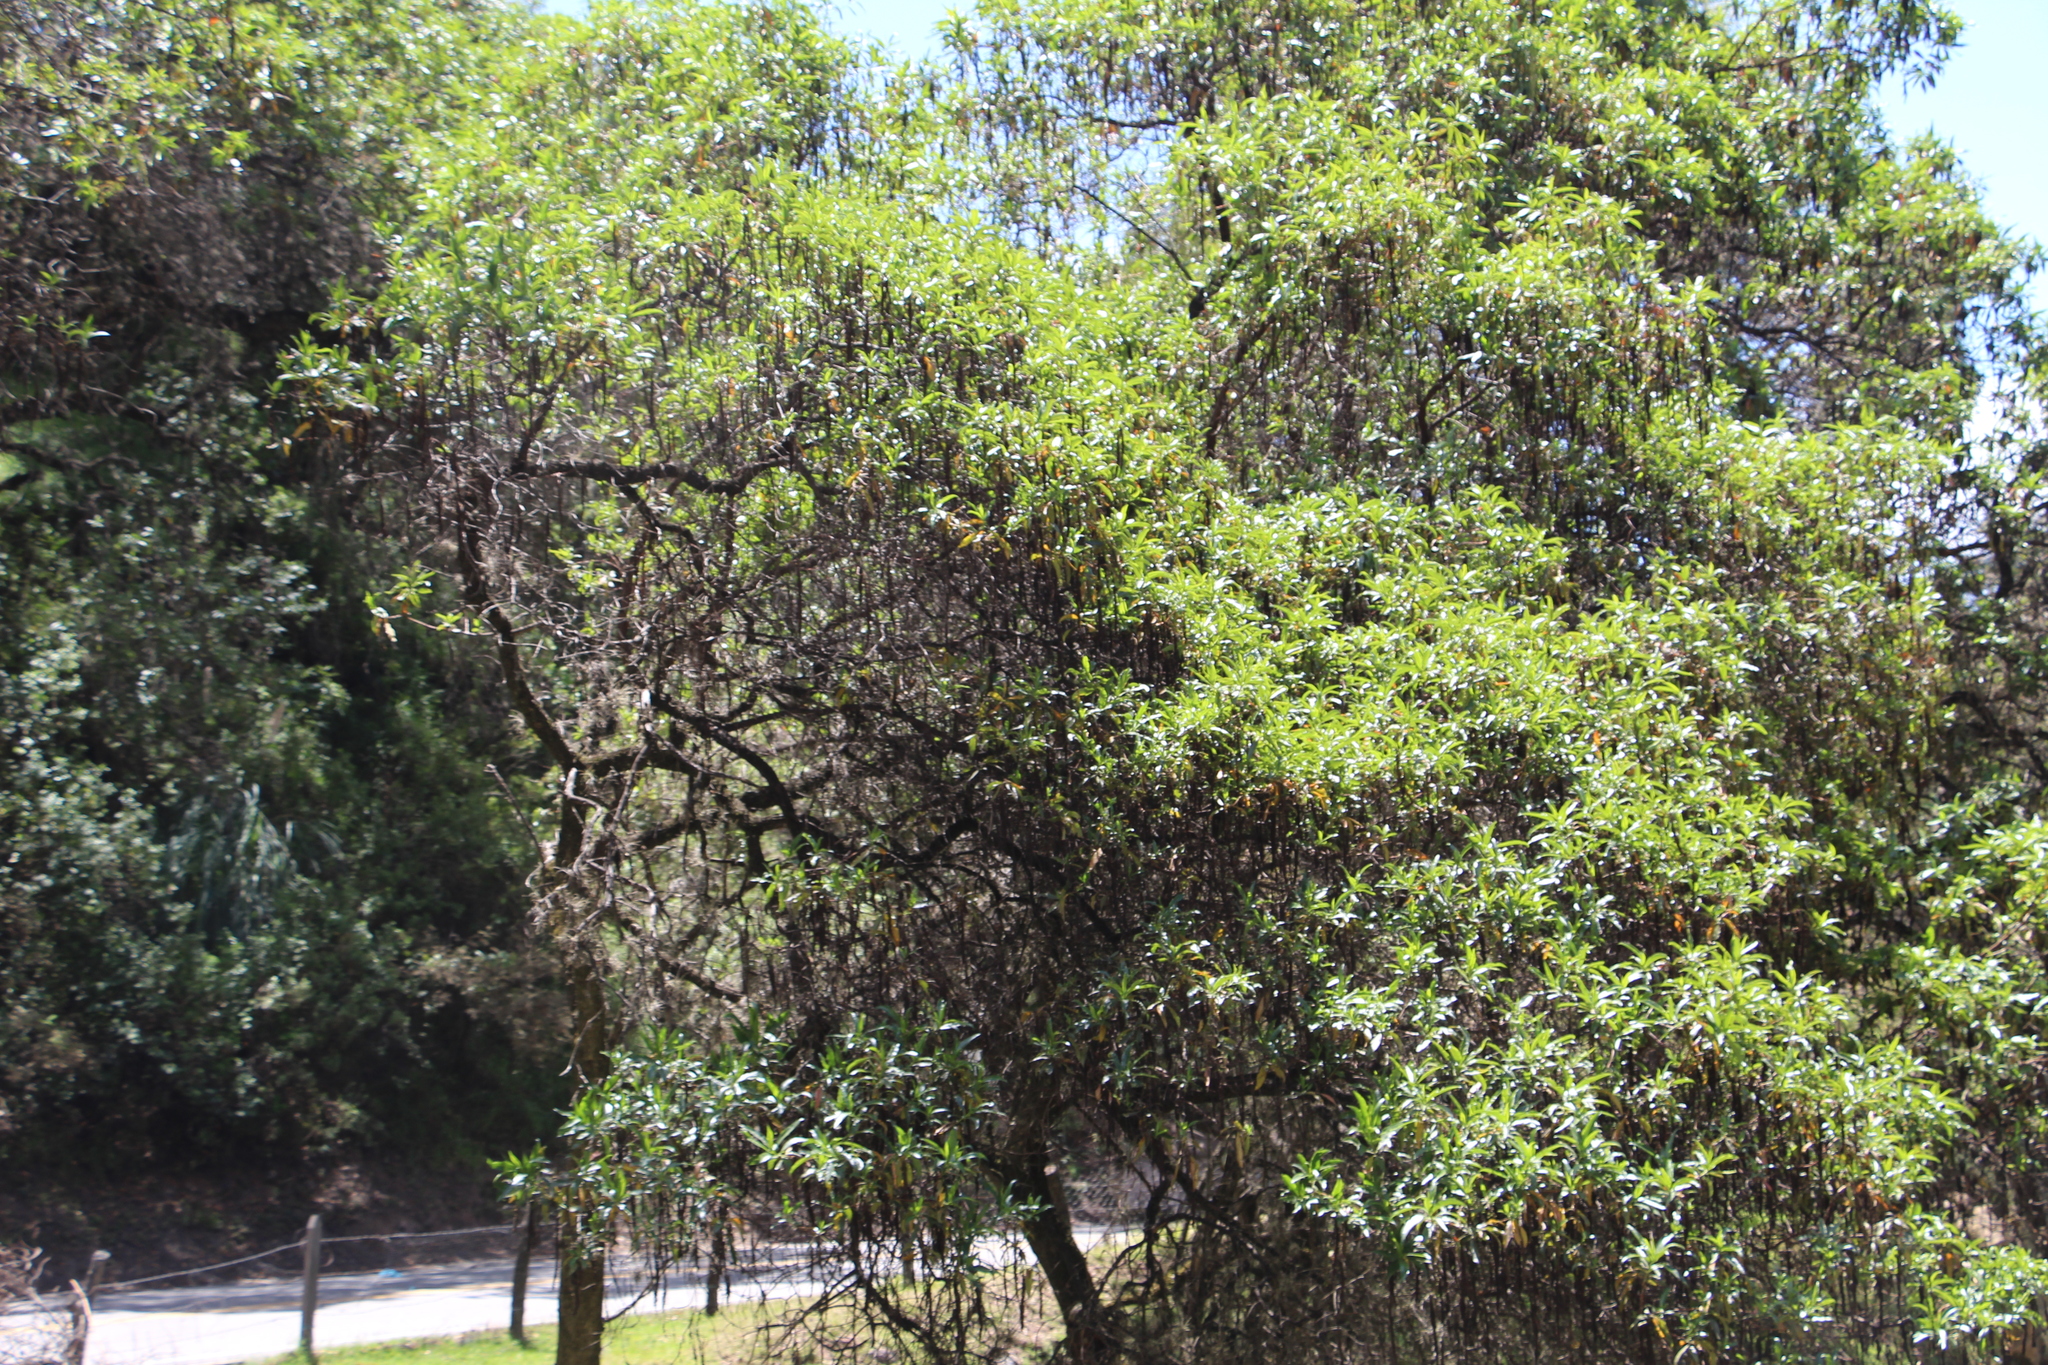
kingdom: Plantae
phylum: Tracheophyta
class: Magnoliopsida
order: Escalloniales
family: Escalloniaceae
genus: Escallonia
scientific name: Escallonia pendula
